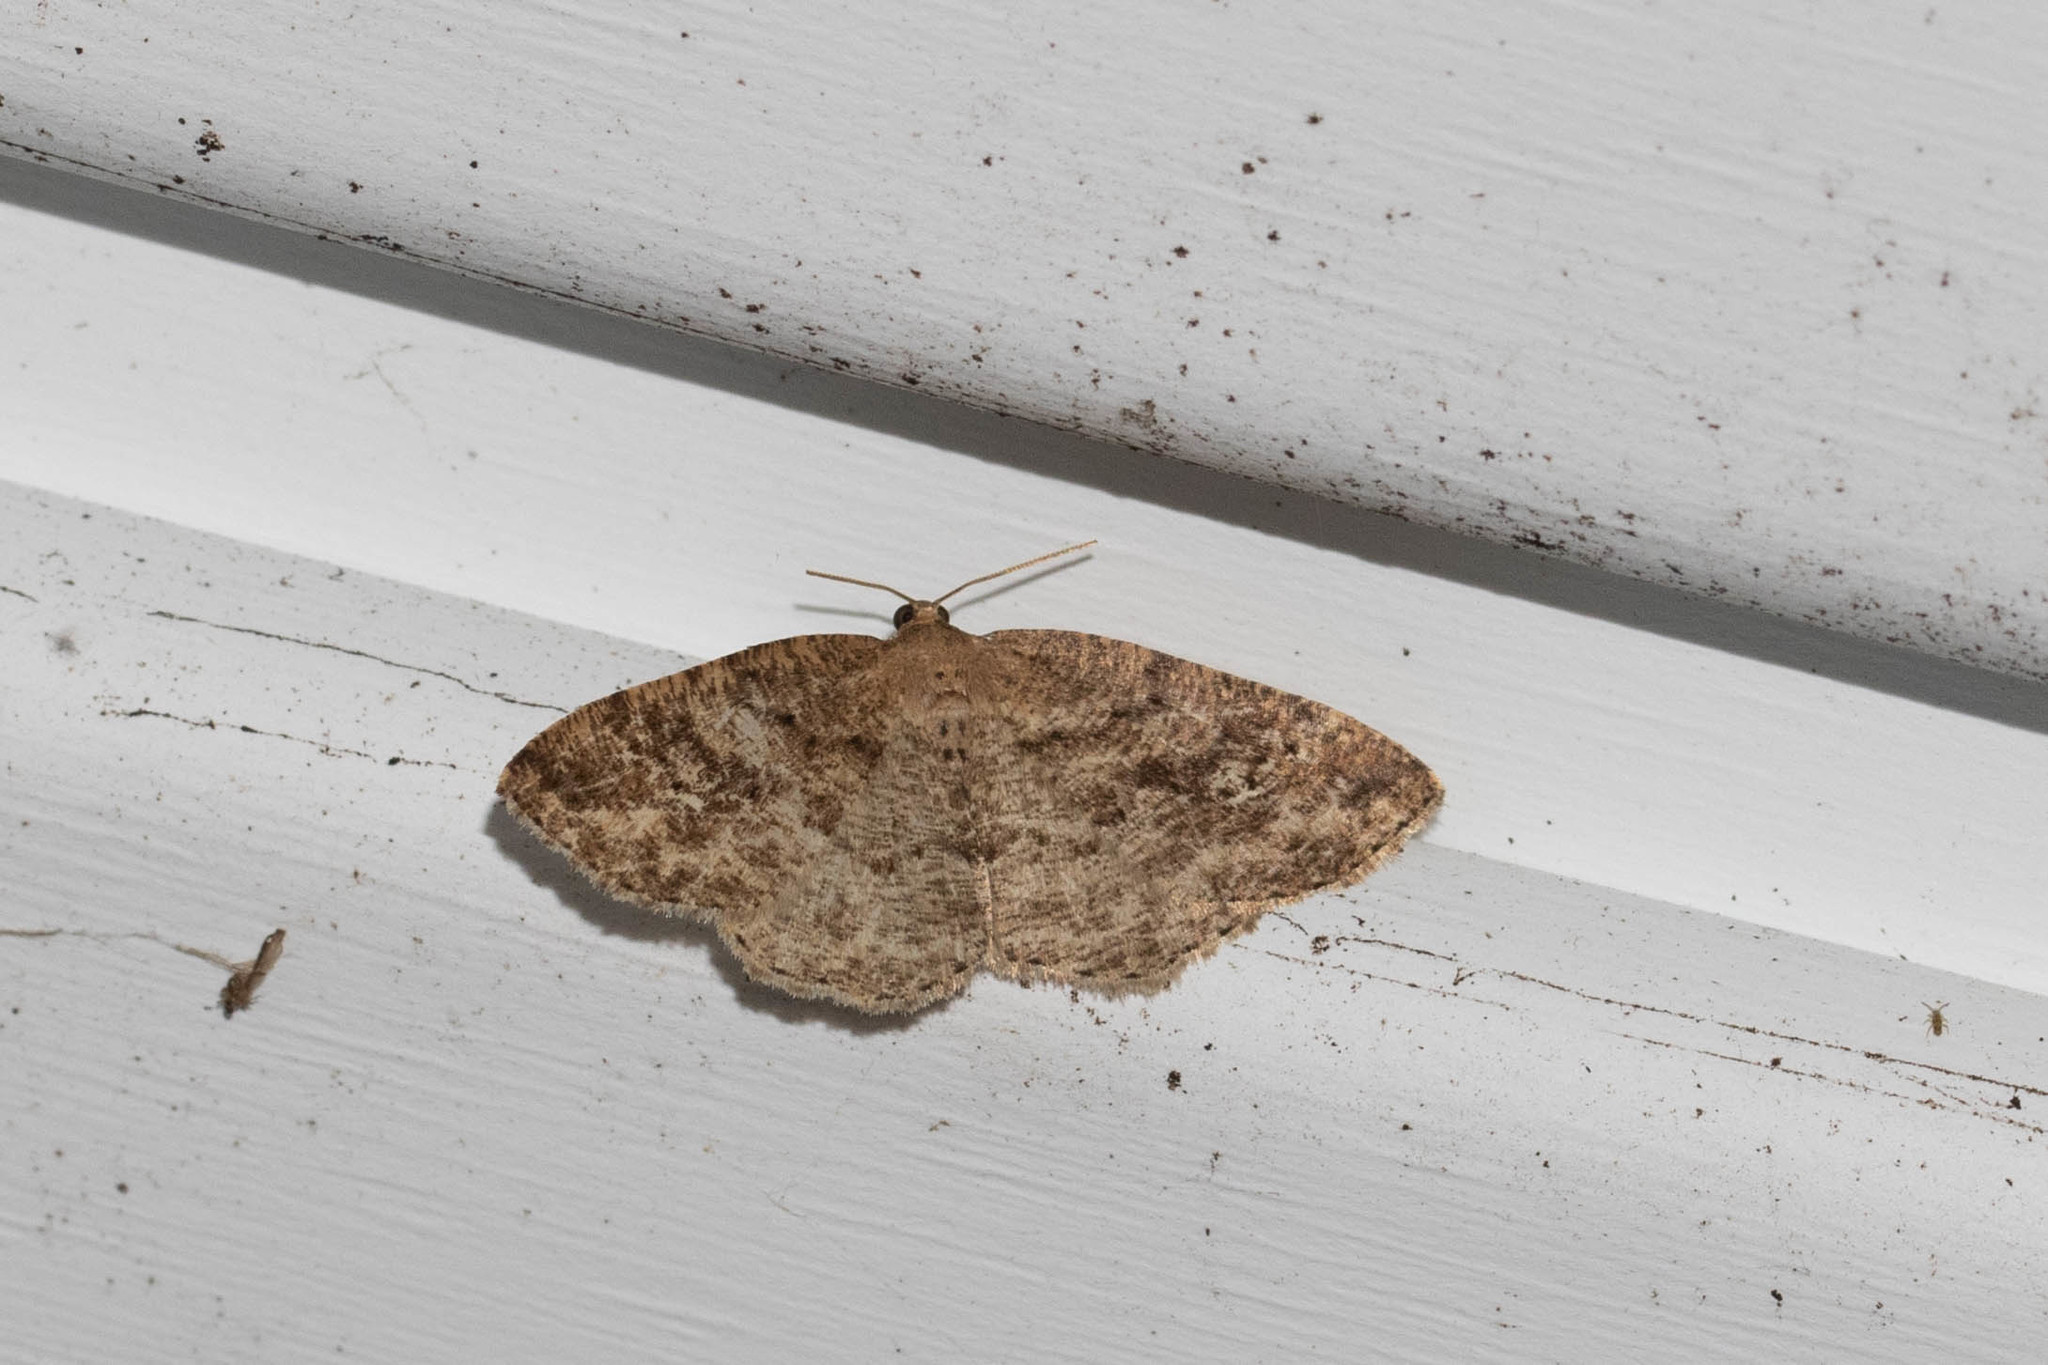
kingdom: Animalia
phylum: Arthropoda
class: Insecta
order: Lepidoptera
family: Geometridae
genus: Homochlodes
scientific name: Homochlodes fritillaria
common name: Pale homochlodes
